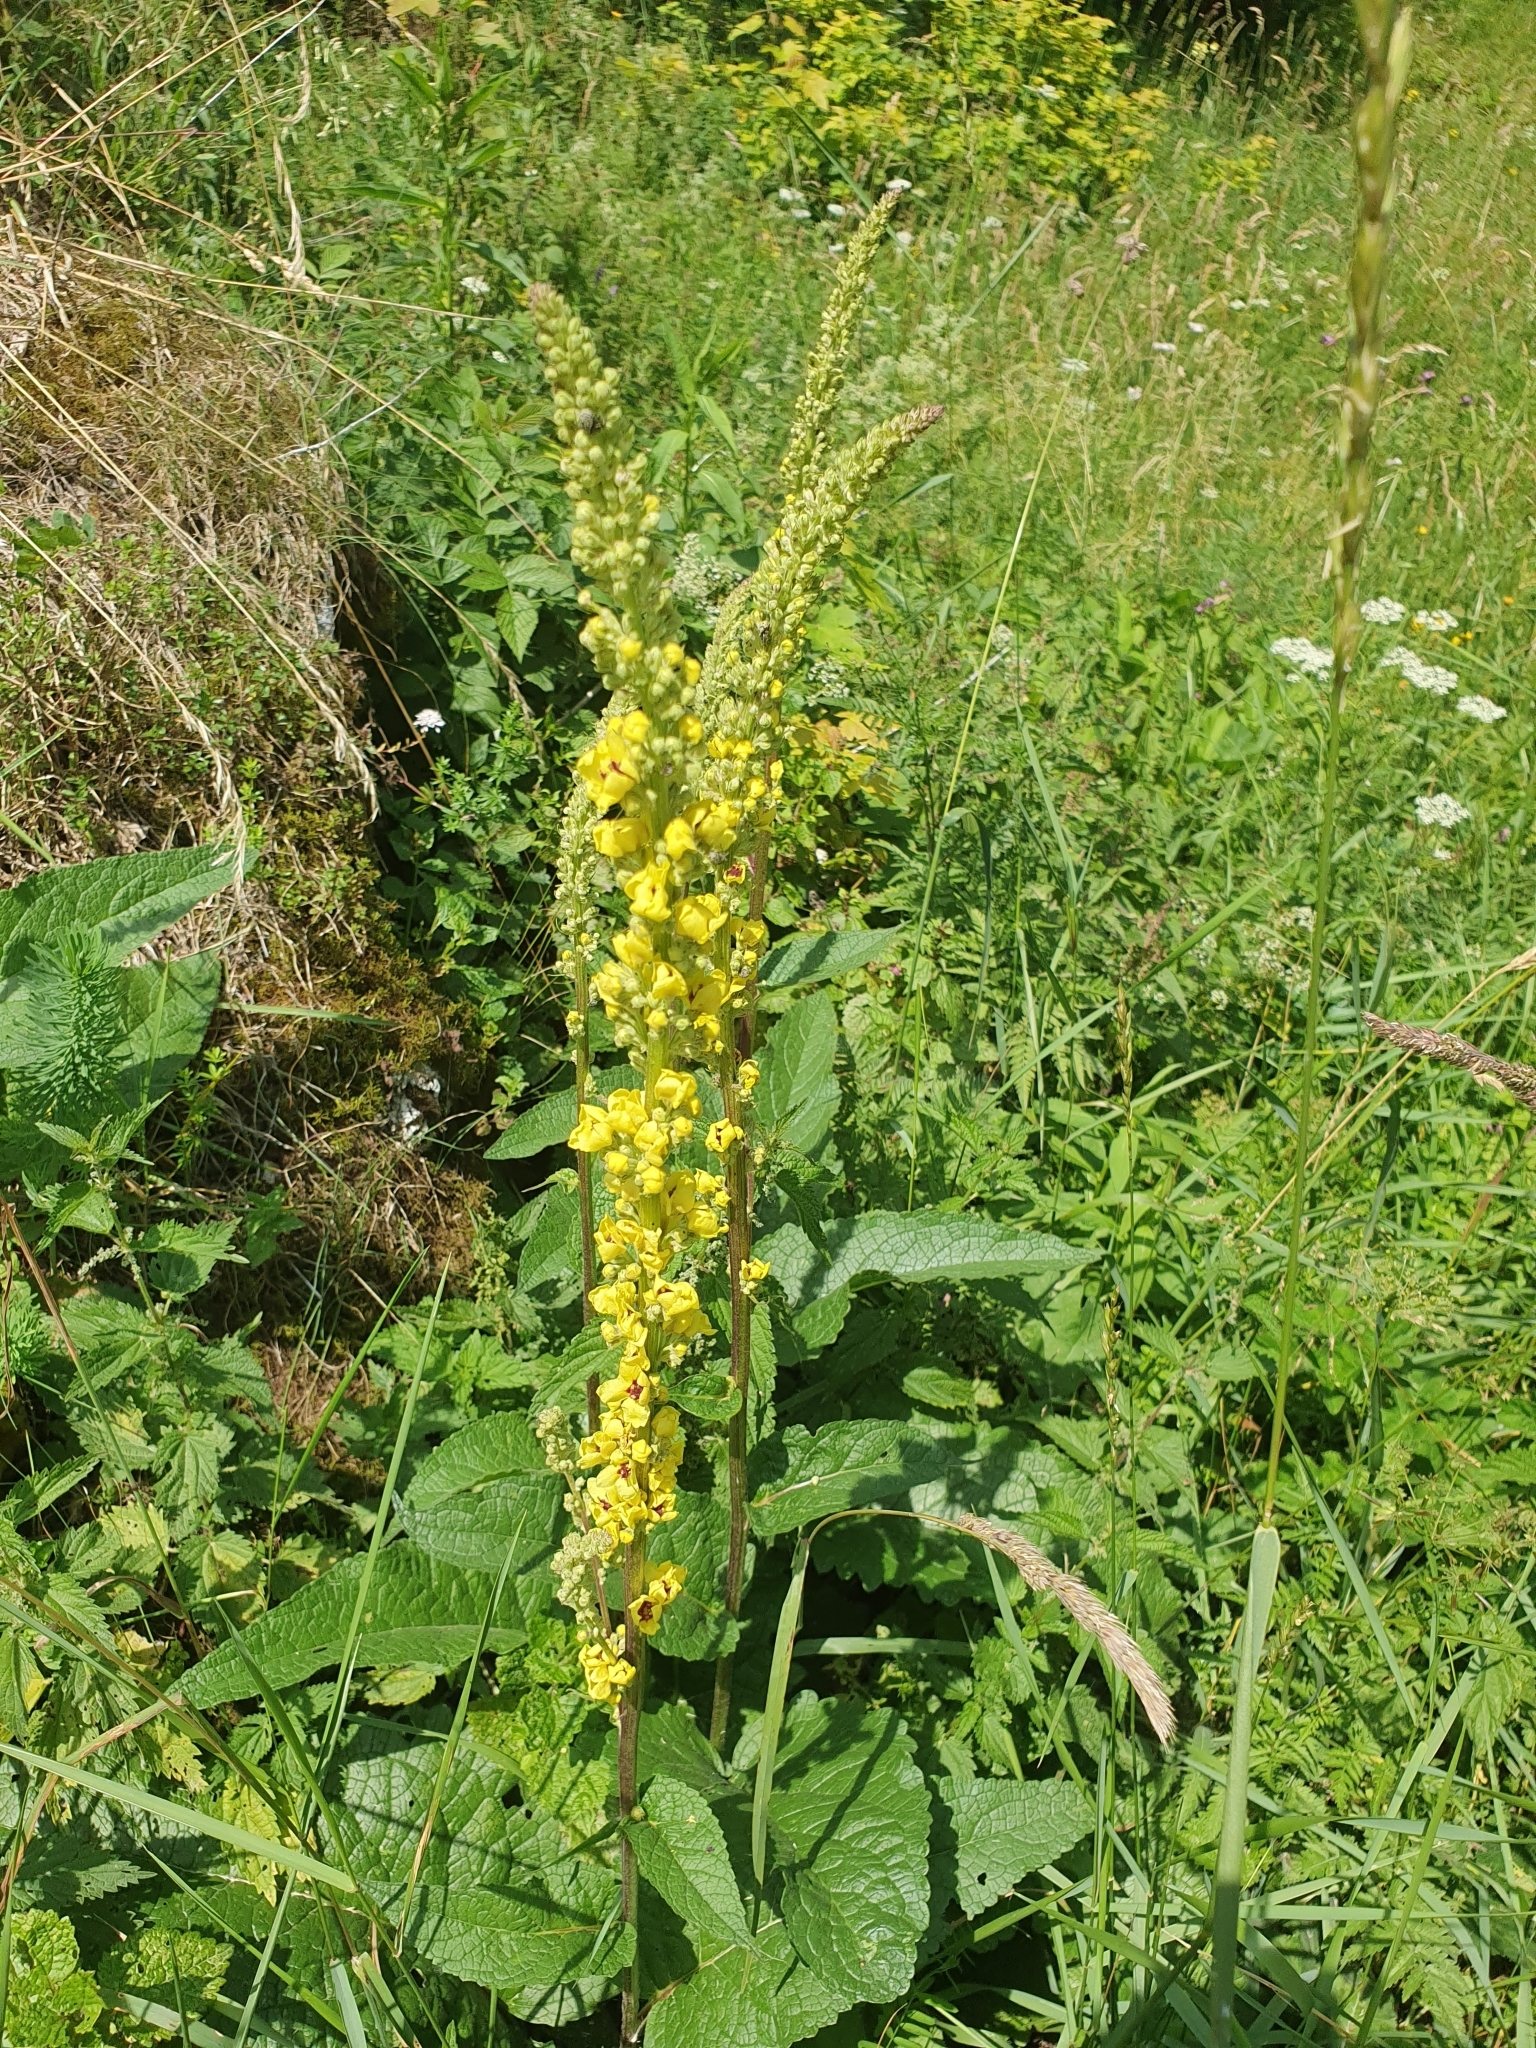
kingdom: Plantae
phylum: Tracheophyta
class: Magnoliopsida
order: Lamiales
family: Scrophulariaceae
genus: Verbascum
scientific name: Verbascum nigrum
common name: Dark mullein
